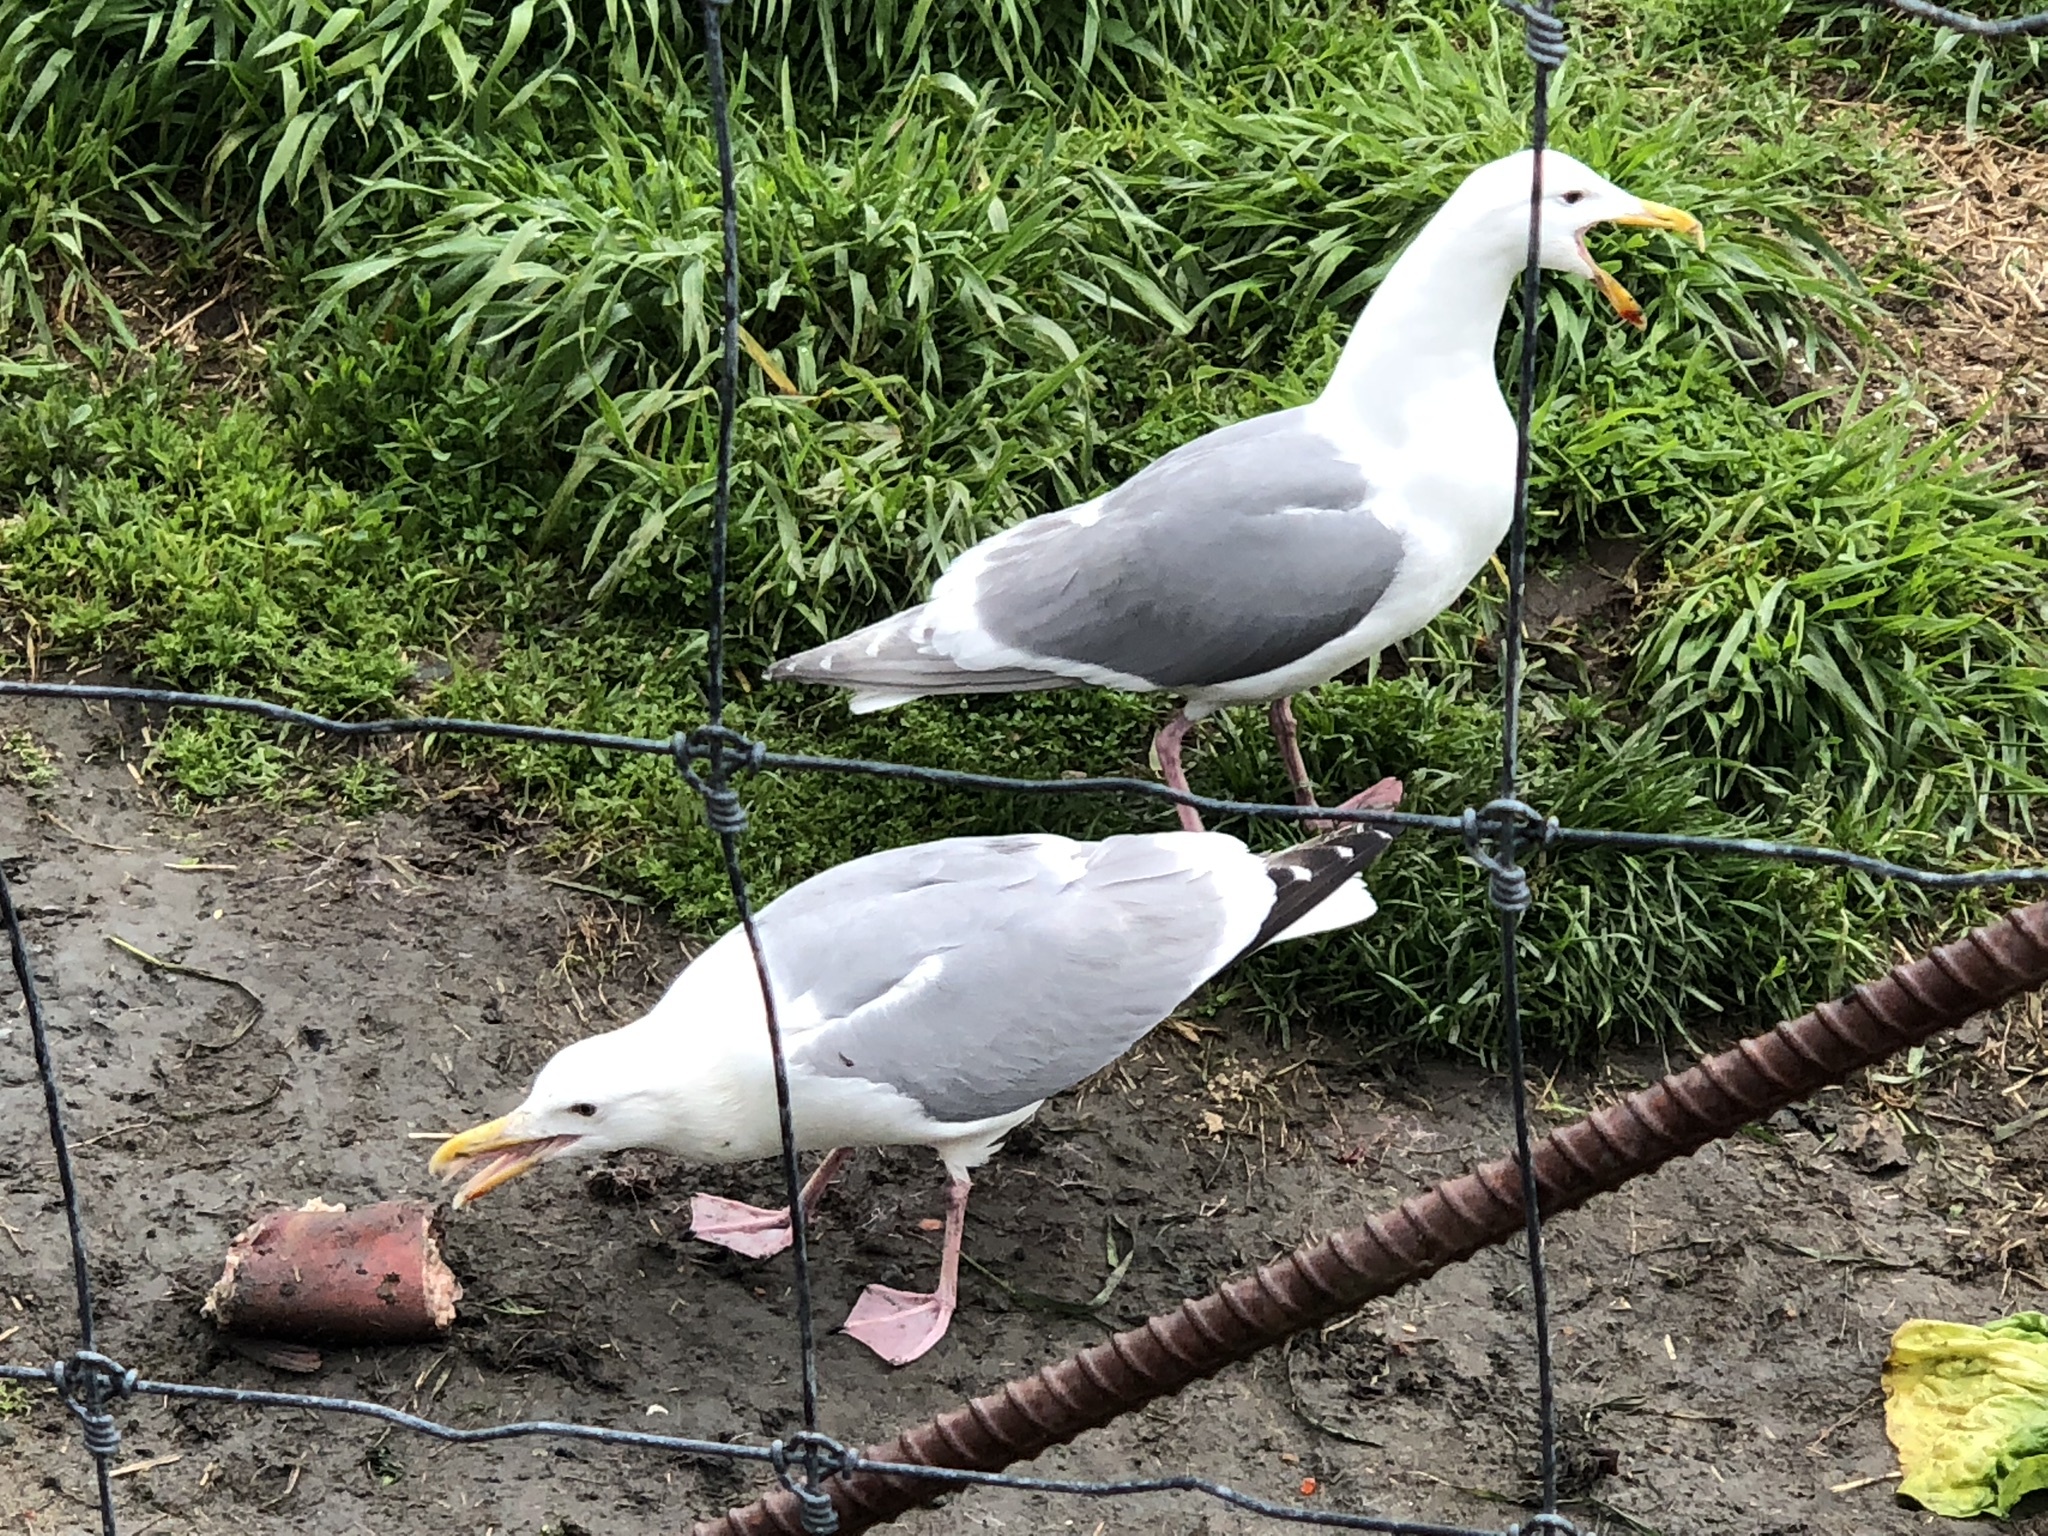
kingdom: Animalia
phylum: Chordata
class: Aves
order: Charadriiformes
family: Laridae
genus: Larus
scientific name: Larus
